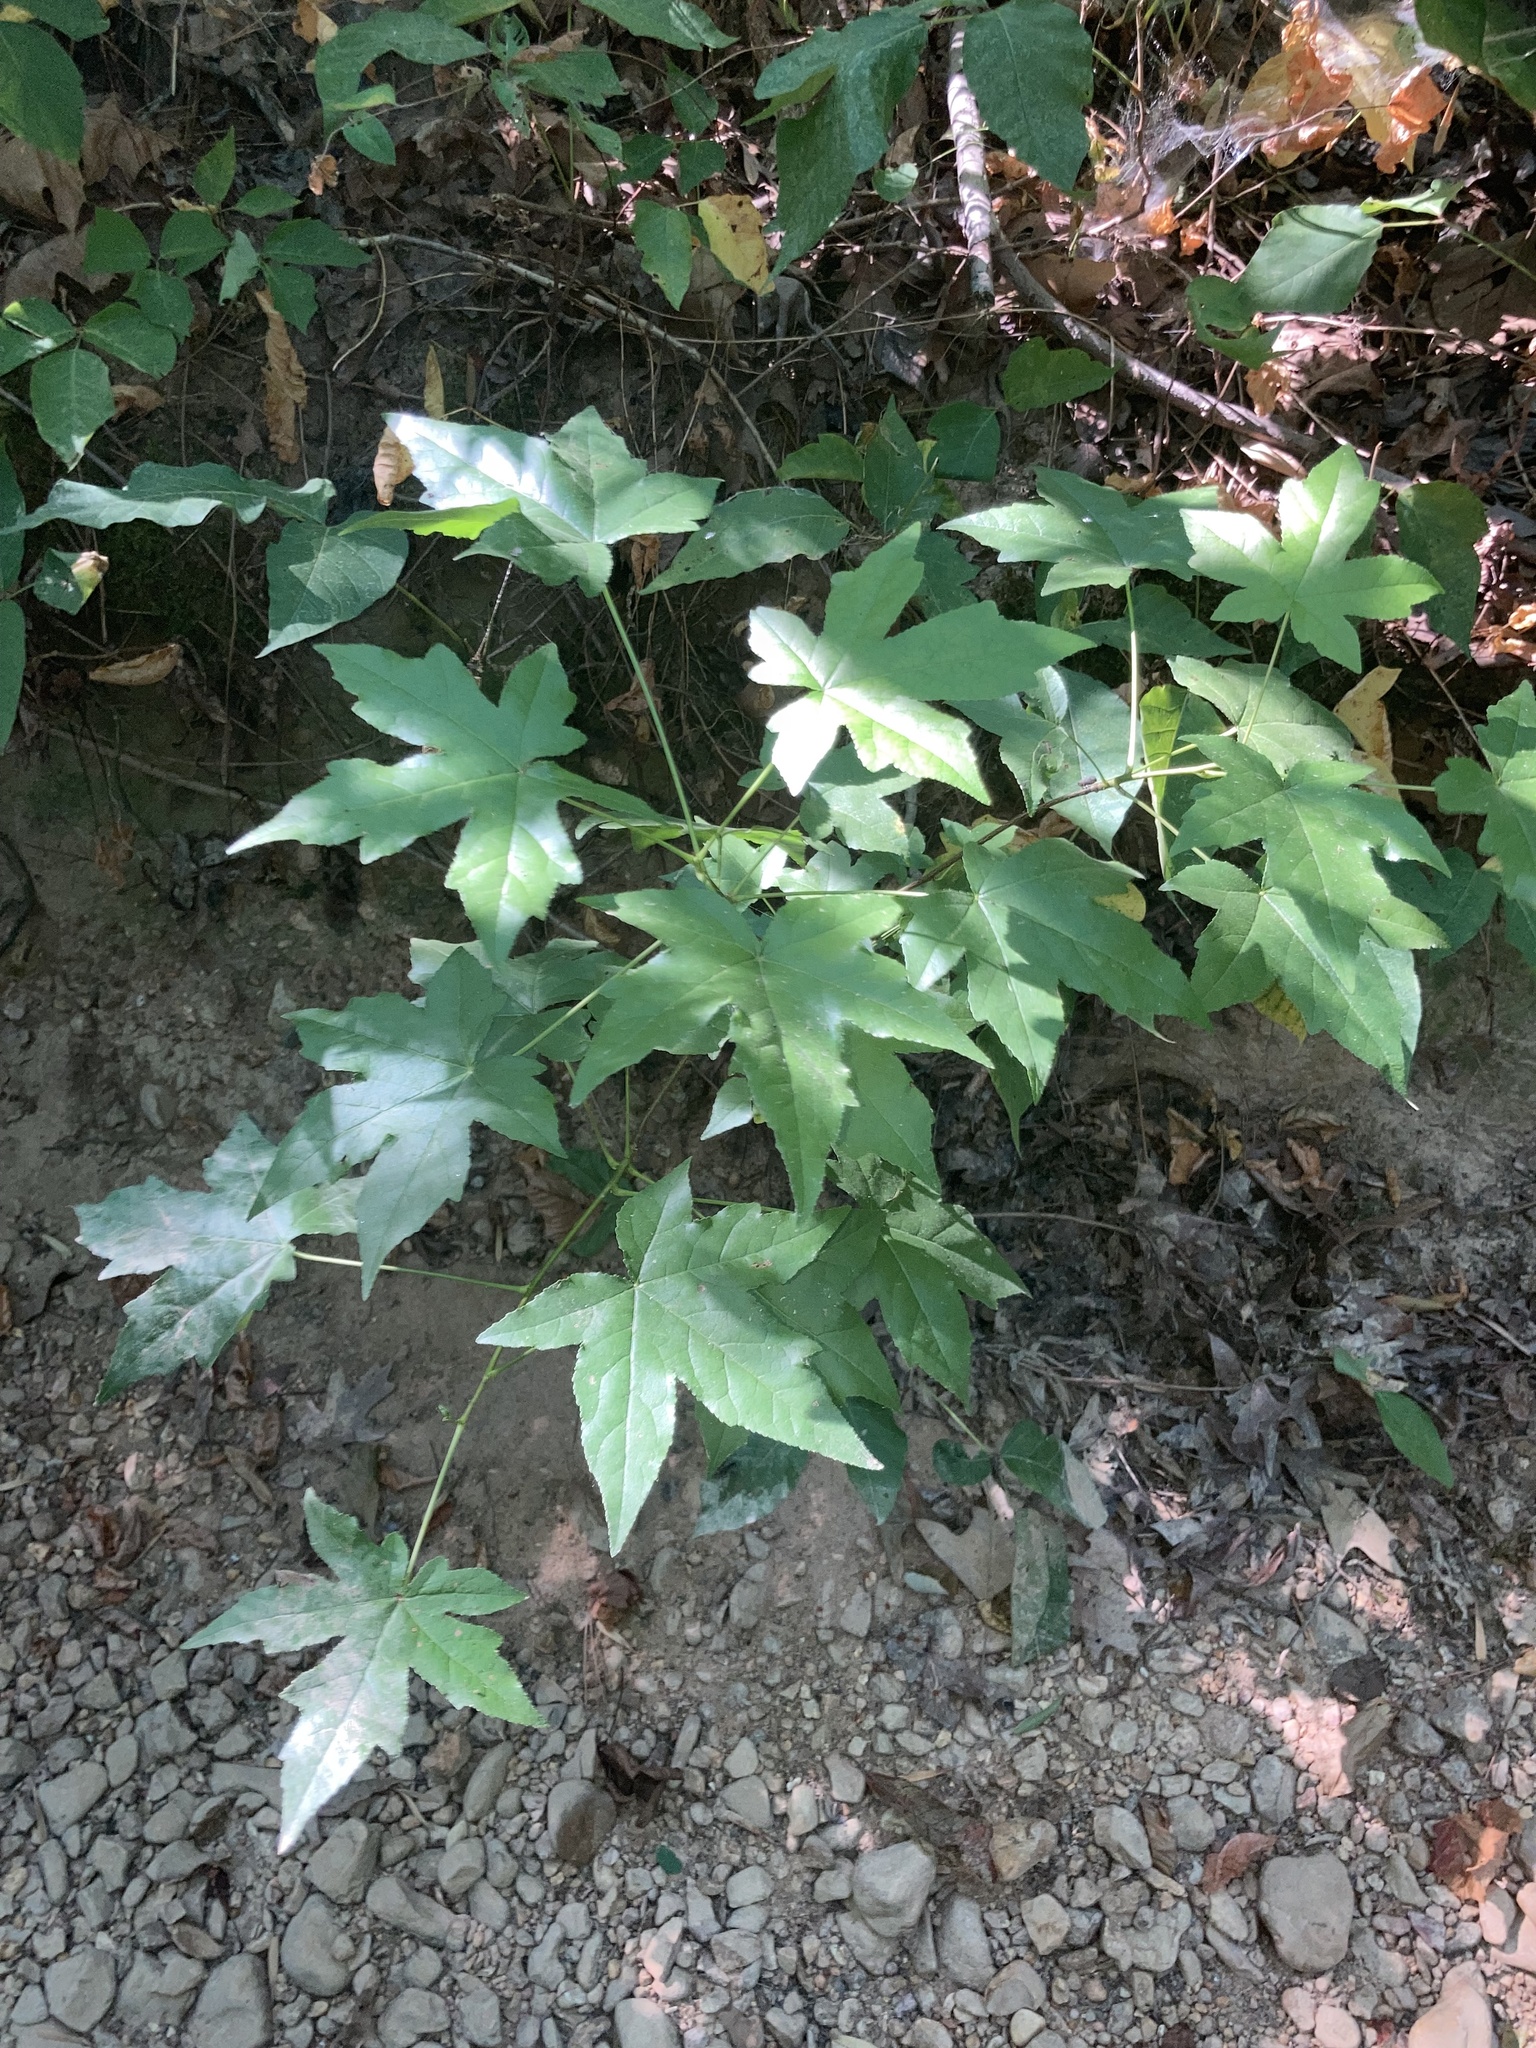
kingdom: Plantae
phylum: Tracheophyta
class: Magnoliopsida
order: Saxifragales
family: Altingiaceae
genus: Liquidambar
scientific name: Liquidambar styraciflua
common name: Sweet gum
